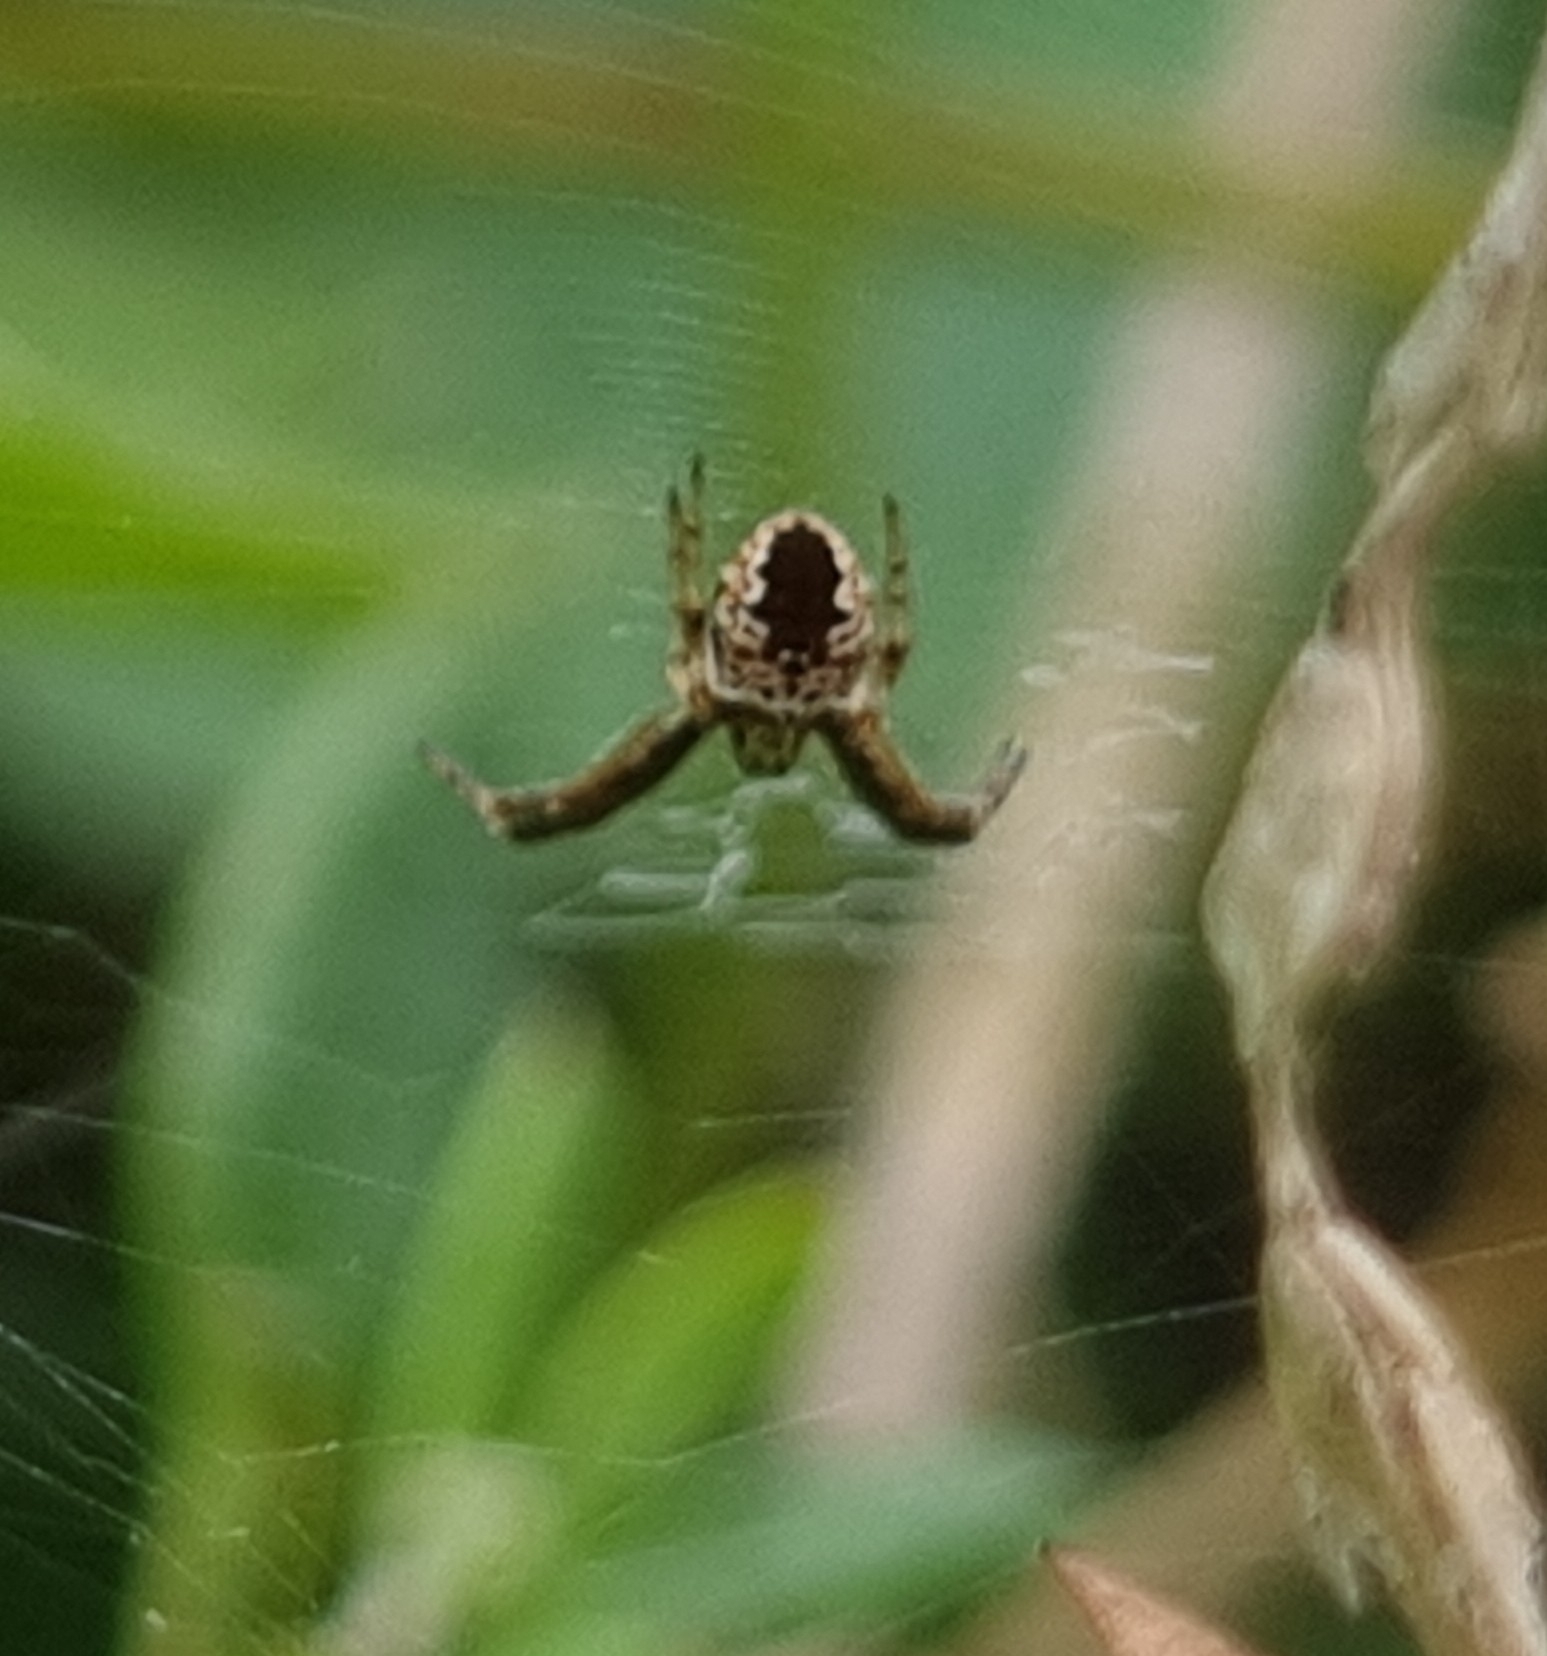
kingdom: Animalia
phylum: Arthropoda
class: Arachnida
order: Araneae
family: Araneidae
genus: Gea
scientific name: Gea theridioides
